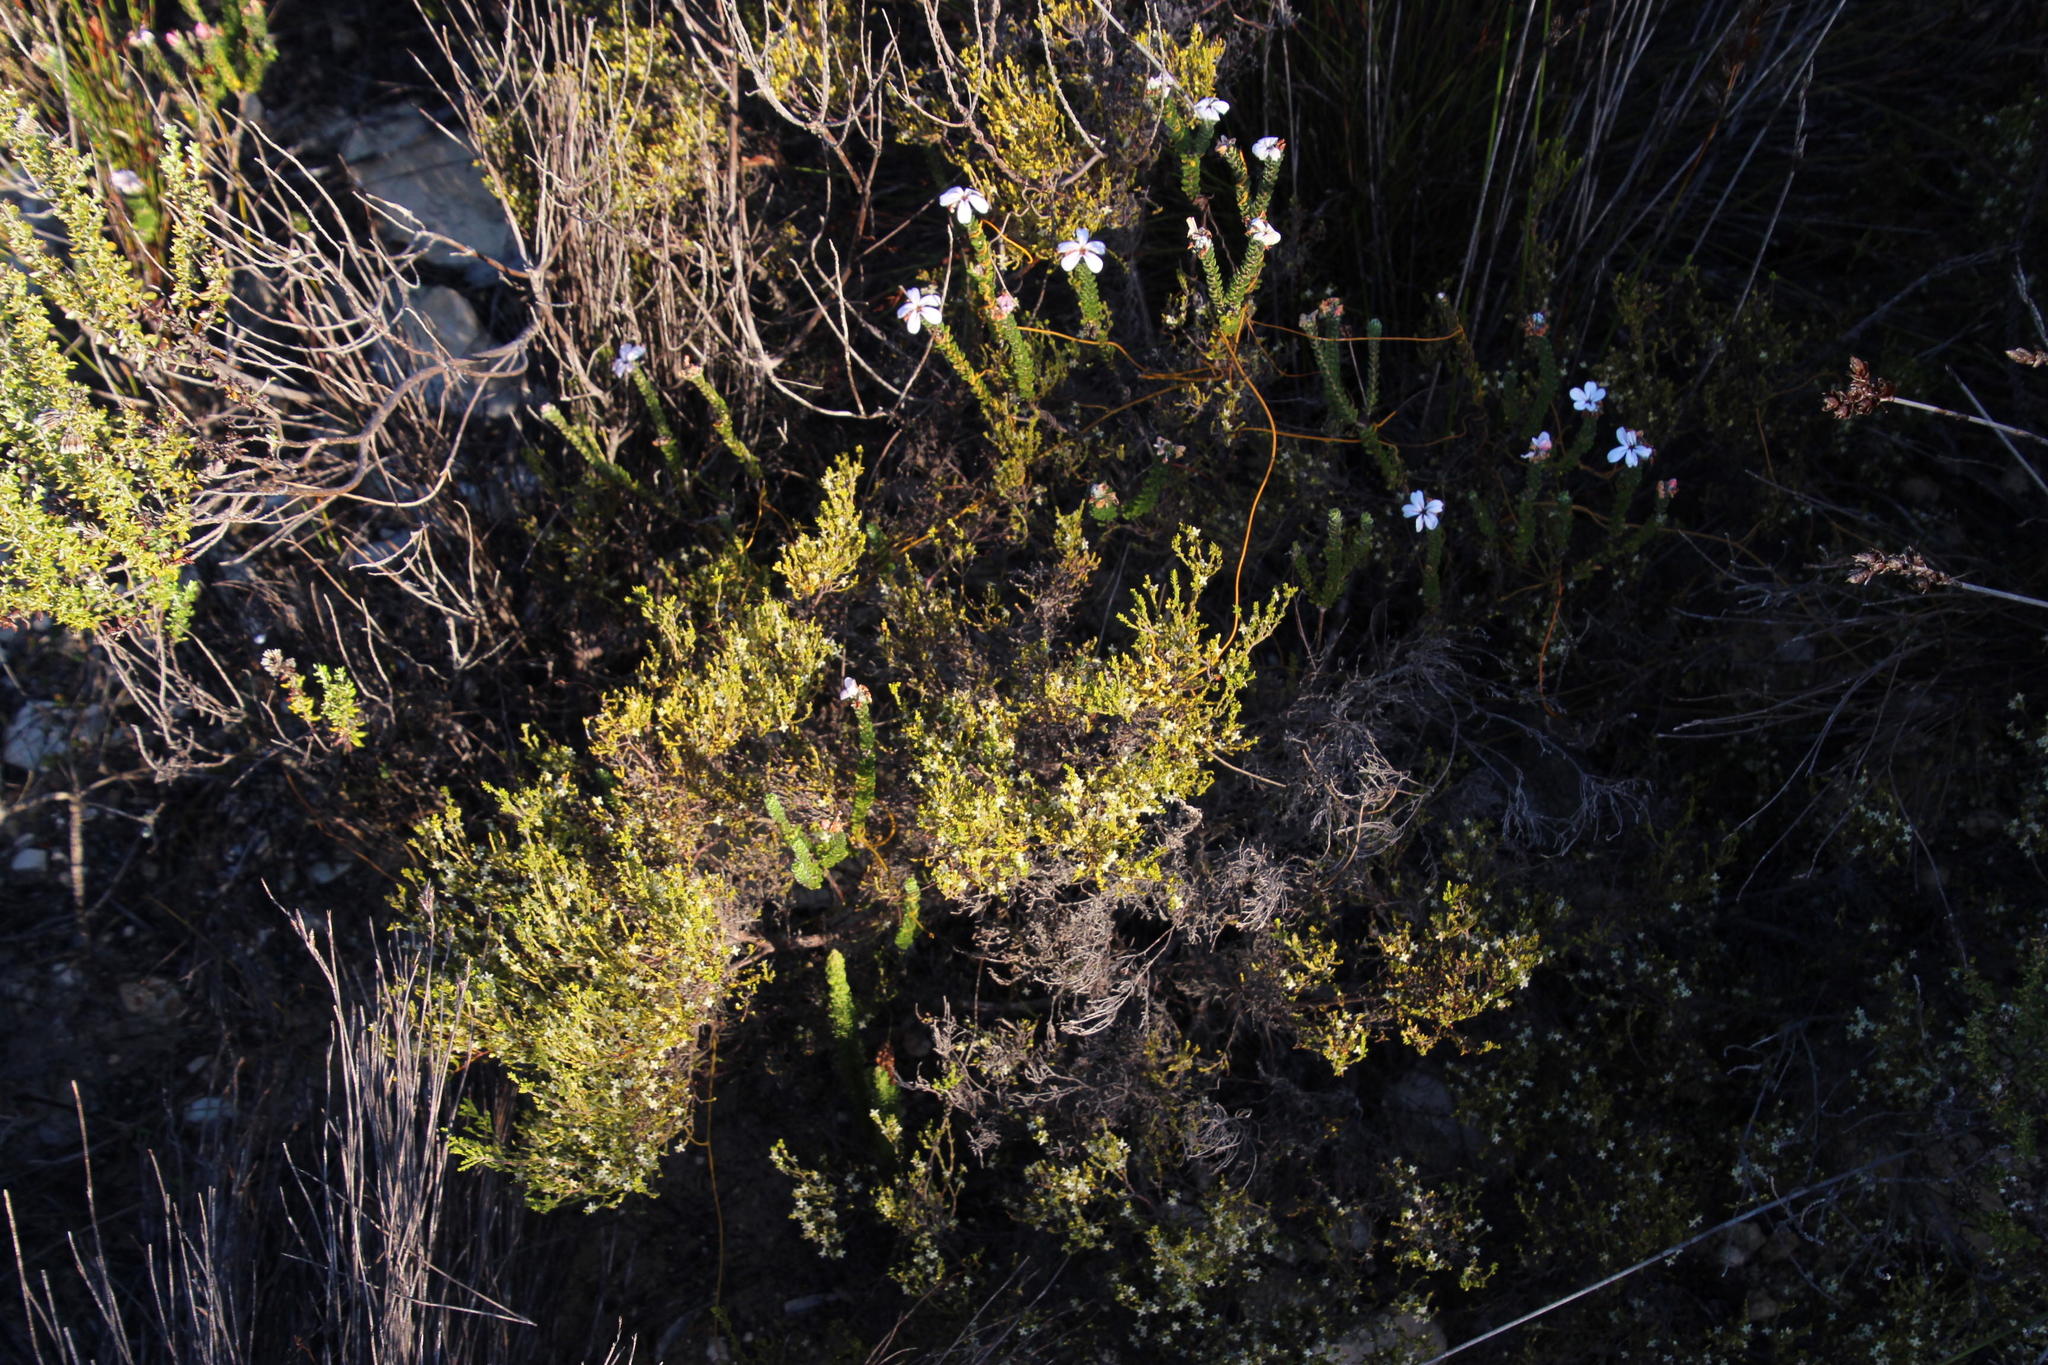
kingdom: Plantae
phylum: Tracheophyta
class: Magnoliopsida
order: Malvales
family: Thymelaeaceae
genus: Lachnaea
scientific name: Lachnaea axillaris
